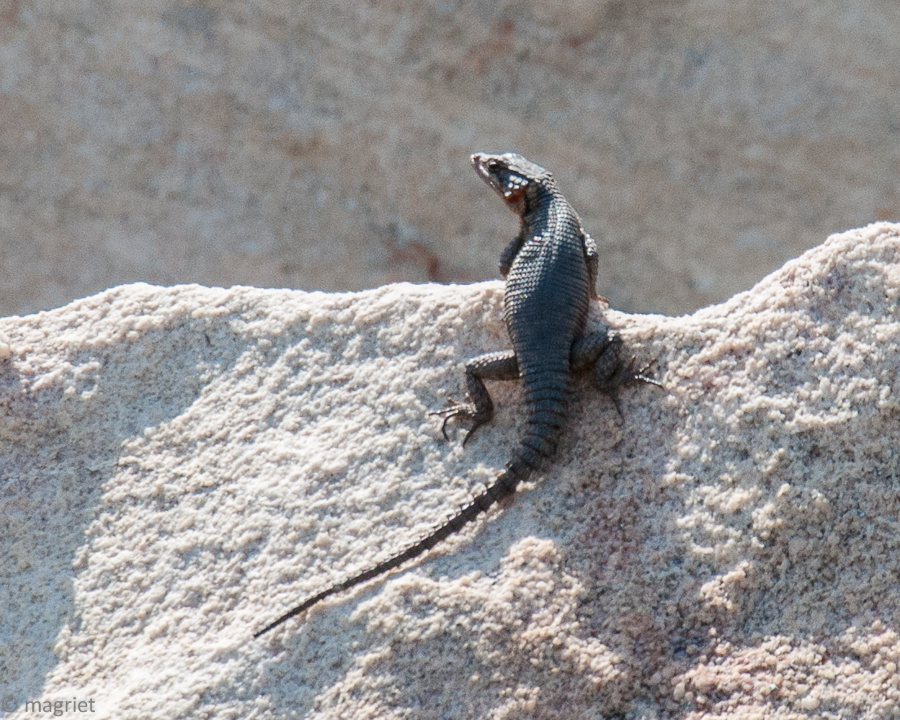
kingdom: Animalia
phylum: Chordata
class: Squamata
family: Cordylidae
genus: Karusasaurus
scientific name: Karusasaurus polyzonus
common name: Karoo girdled lizard
